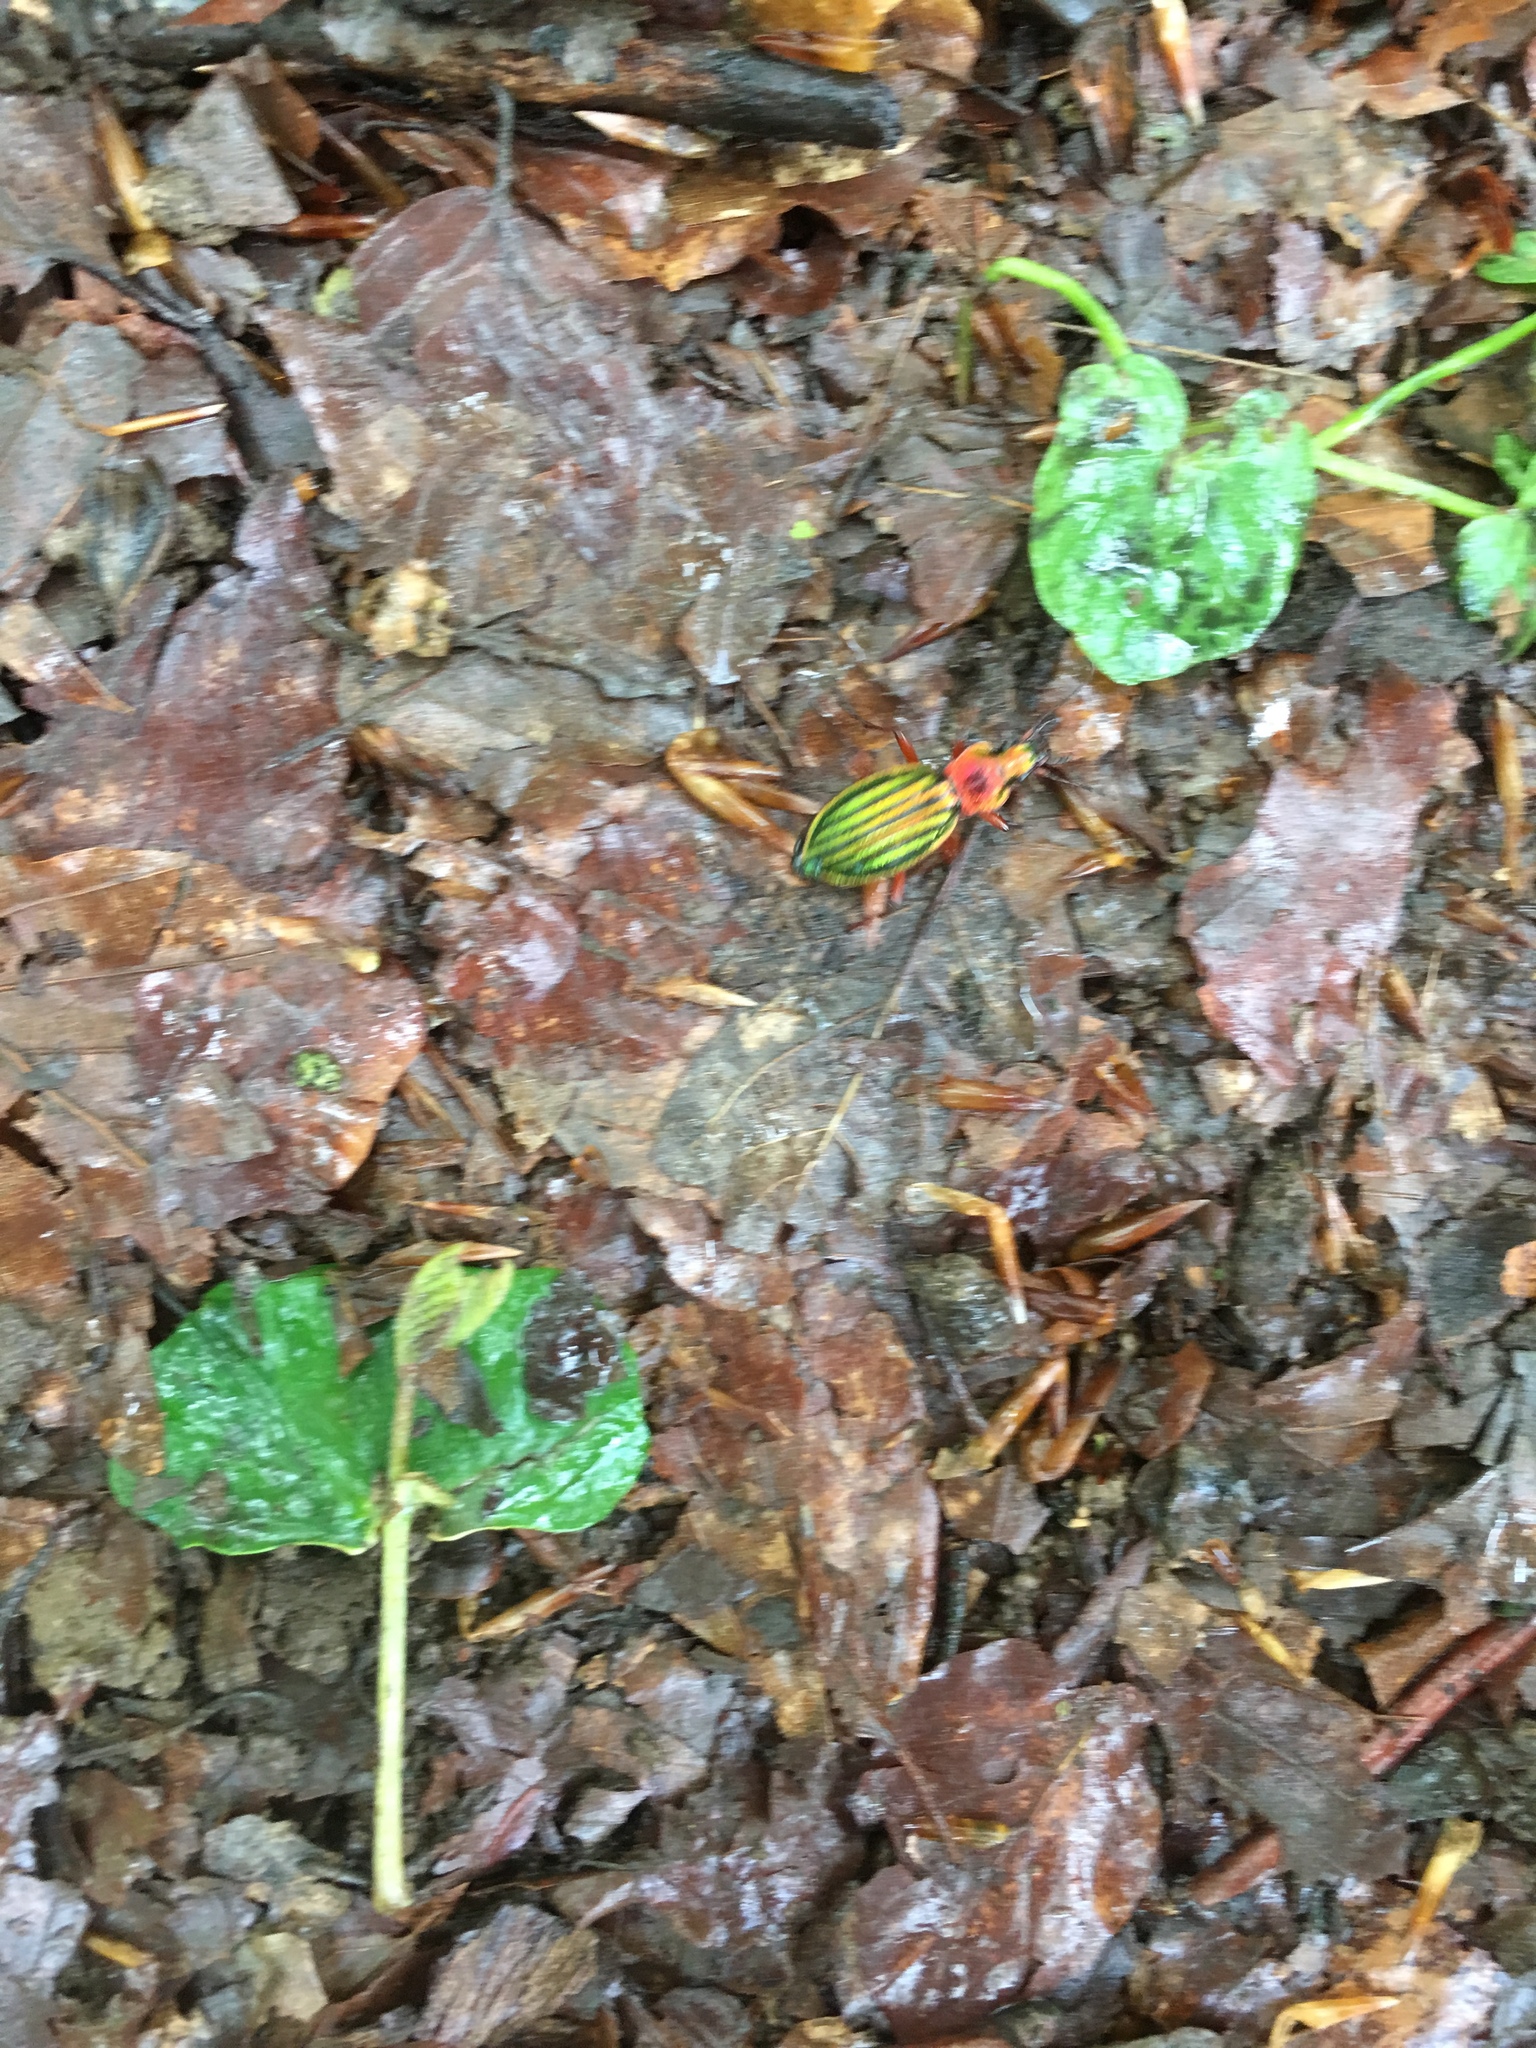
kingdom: Animalia
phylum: Arthropoda
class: Insecta
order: Coleoptera
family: Carabidae
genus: Carabus
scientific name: Carabus auronitens
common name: Carabus auronitens
